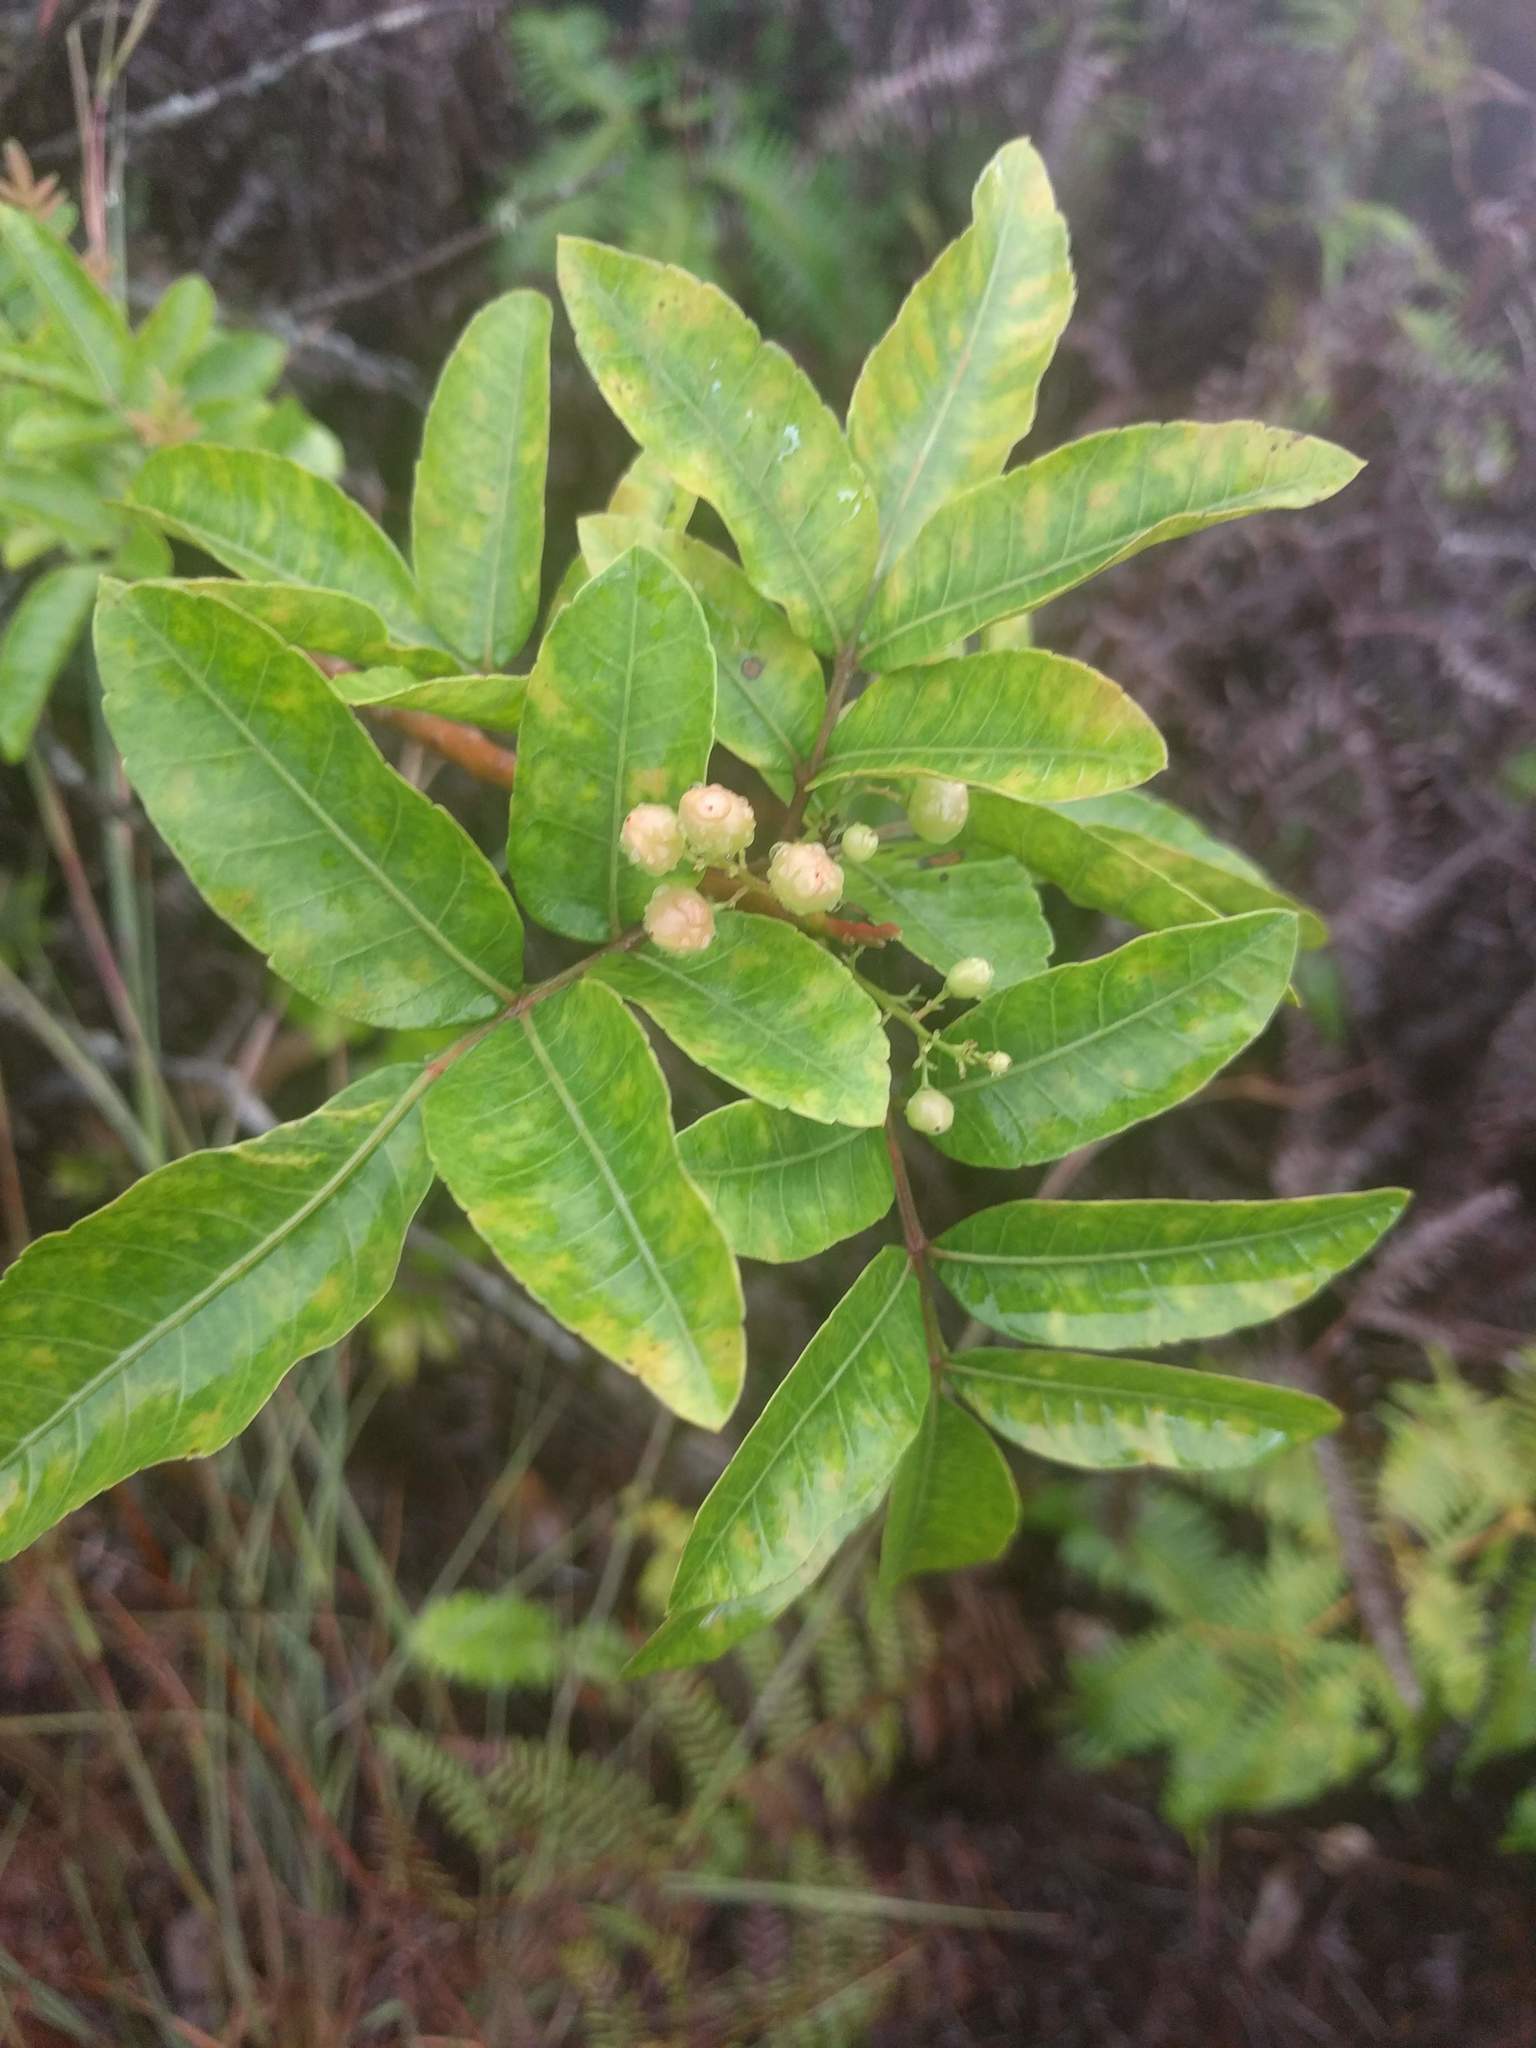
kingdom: Plantae
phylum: Tracheophyta
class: Magnoliopsida
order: Sapindales
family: Anacardiaceae
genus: Schinus
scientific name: Schinus terebinthifolia
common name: Brazilian peppertree
